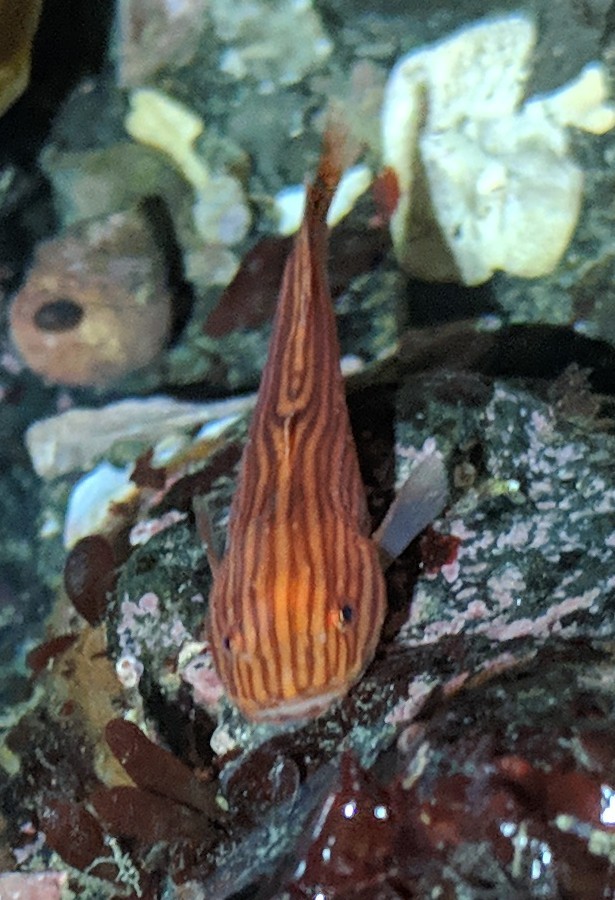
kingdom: Animalia
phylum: Chordata
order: Scorpaeniformes
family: Liparidae
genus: Liparis
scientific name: Liparis mucosus
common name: Slimy snailfish
